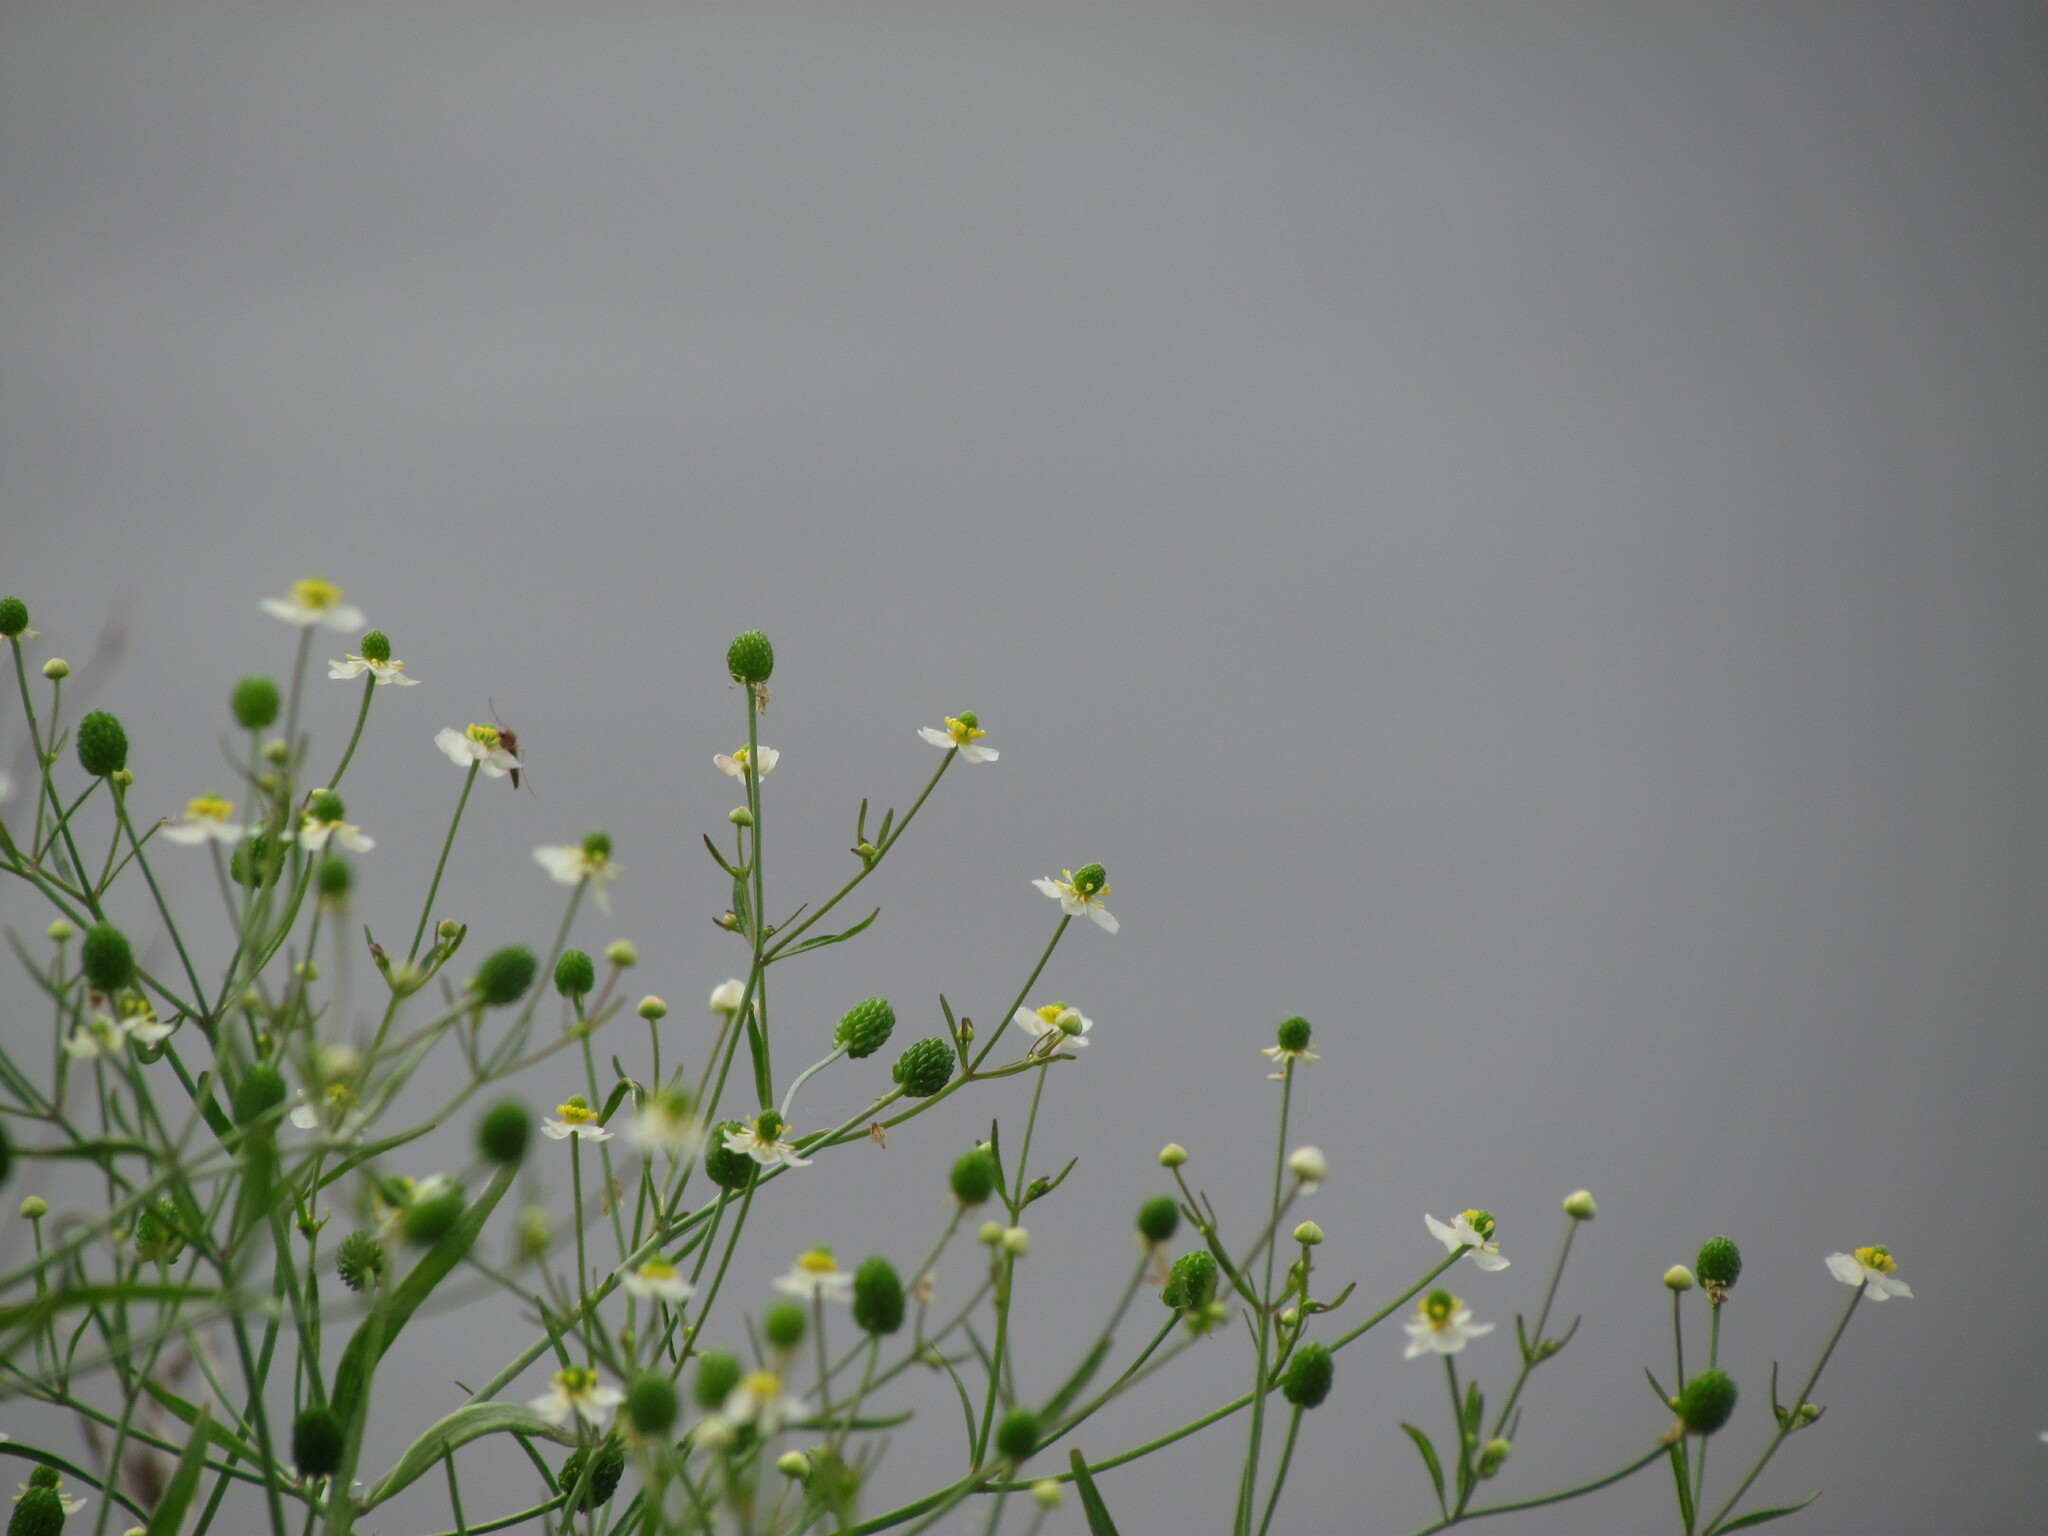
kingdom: Plantae
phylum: Tracheophyta
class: Magnoliopsida
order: Ranunculales
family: Ranunculaceae
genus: Ranunculus
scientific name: Ranunculus apiifolius
